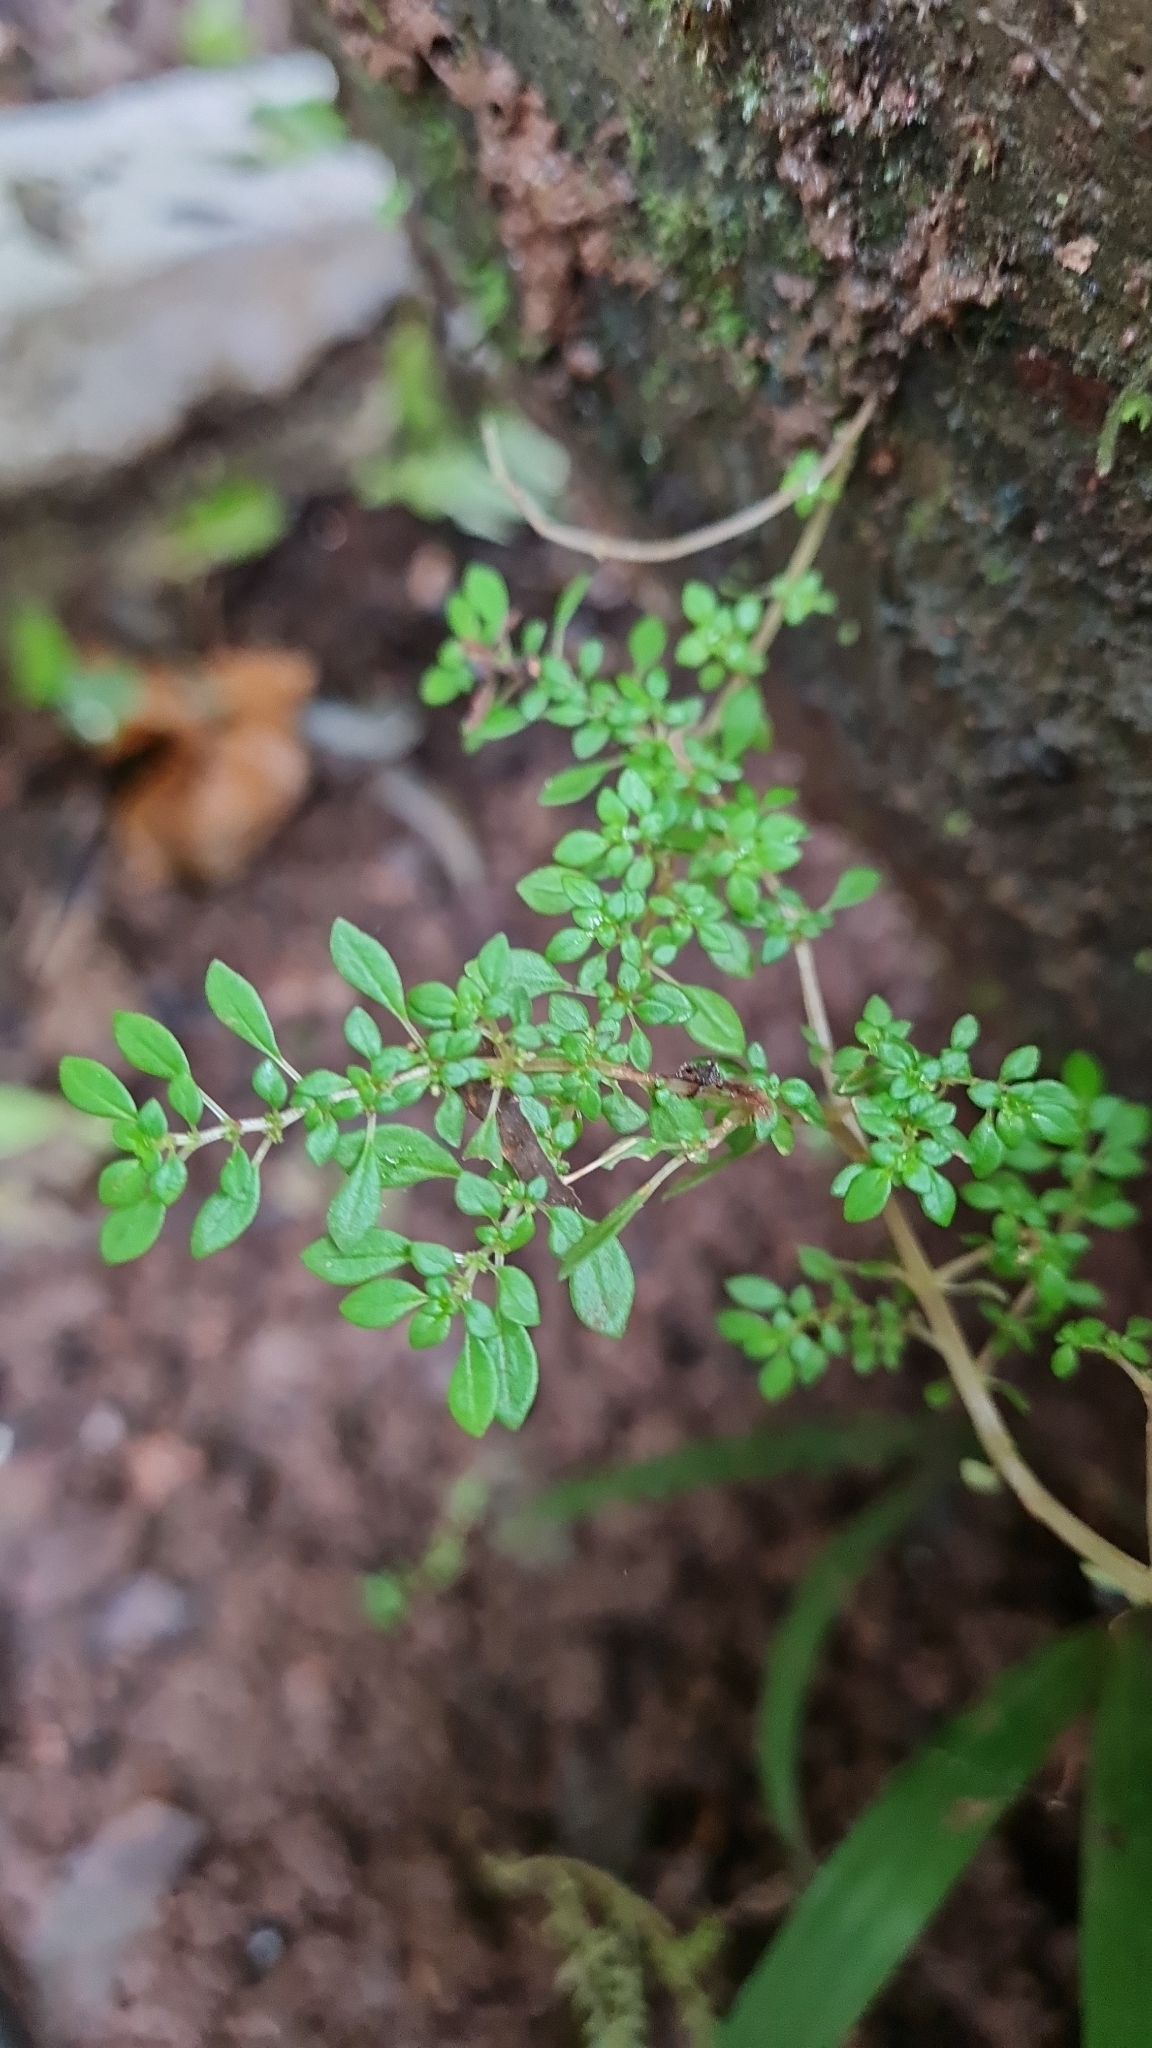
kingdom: Plantae
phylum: Tracheophyta
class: Magnoliopsida
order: Rosales
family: Urticaceae
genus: Pilea
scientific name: Pilea microphylla
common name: Artillery-plant
